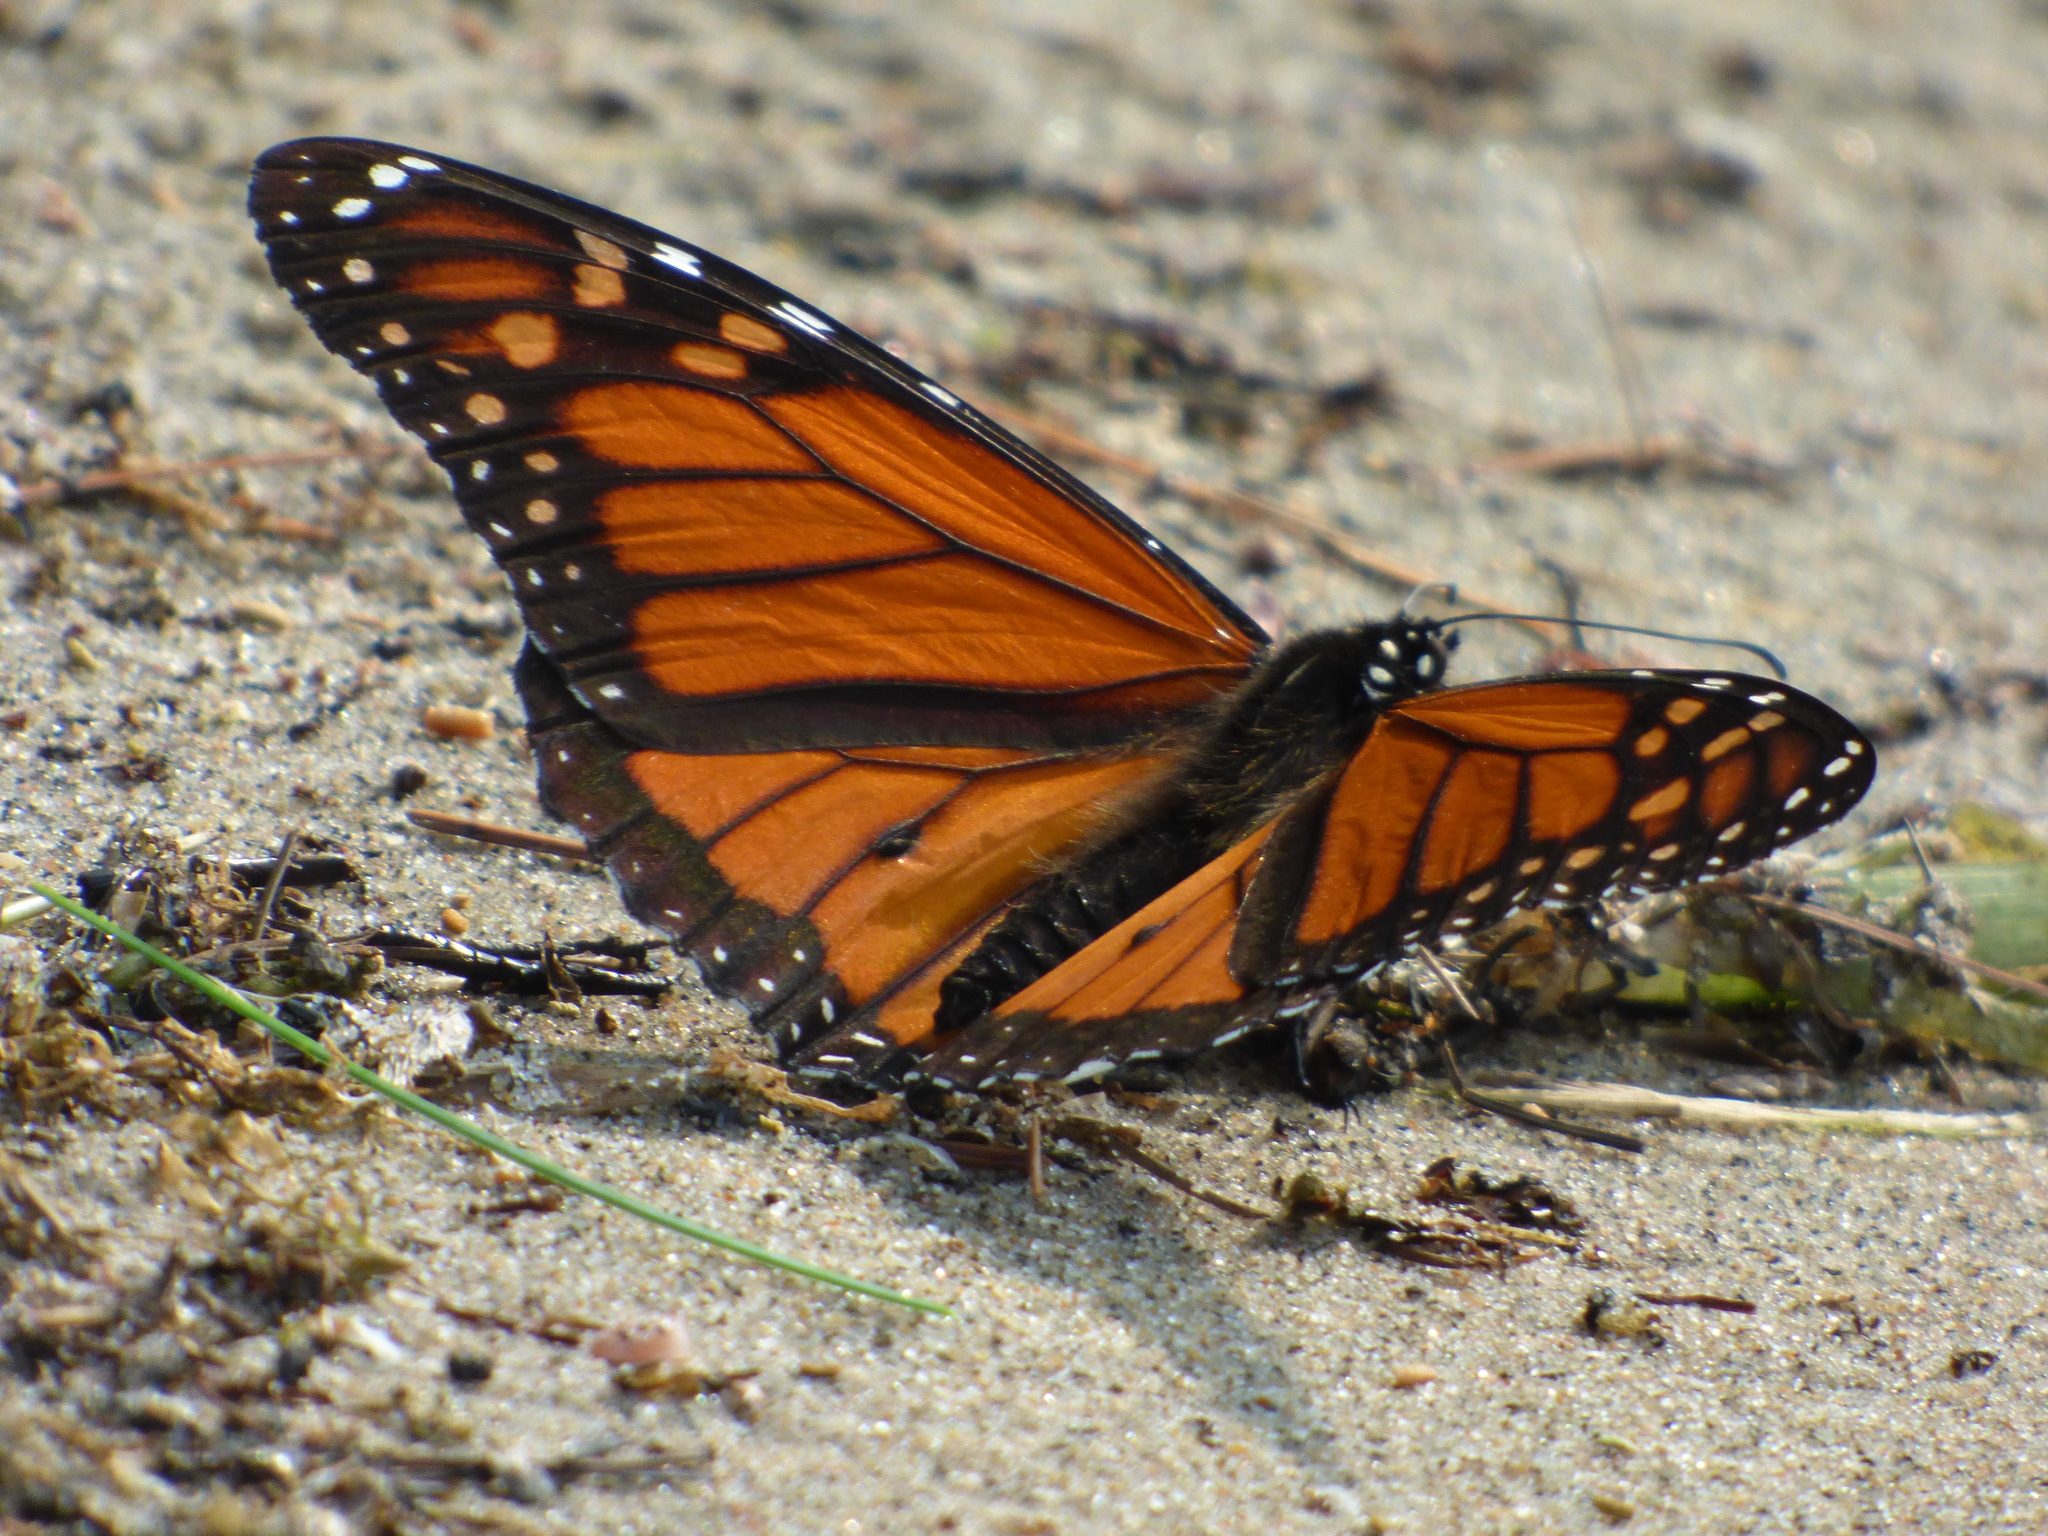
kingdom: Animalia
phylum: Arthropoda
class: Insecta
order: Lepidoptera
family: Nymphalidae
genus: Danaus
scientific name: Danaus plexippus
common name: Monarch
